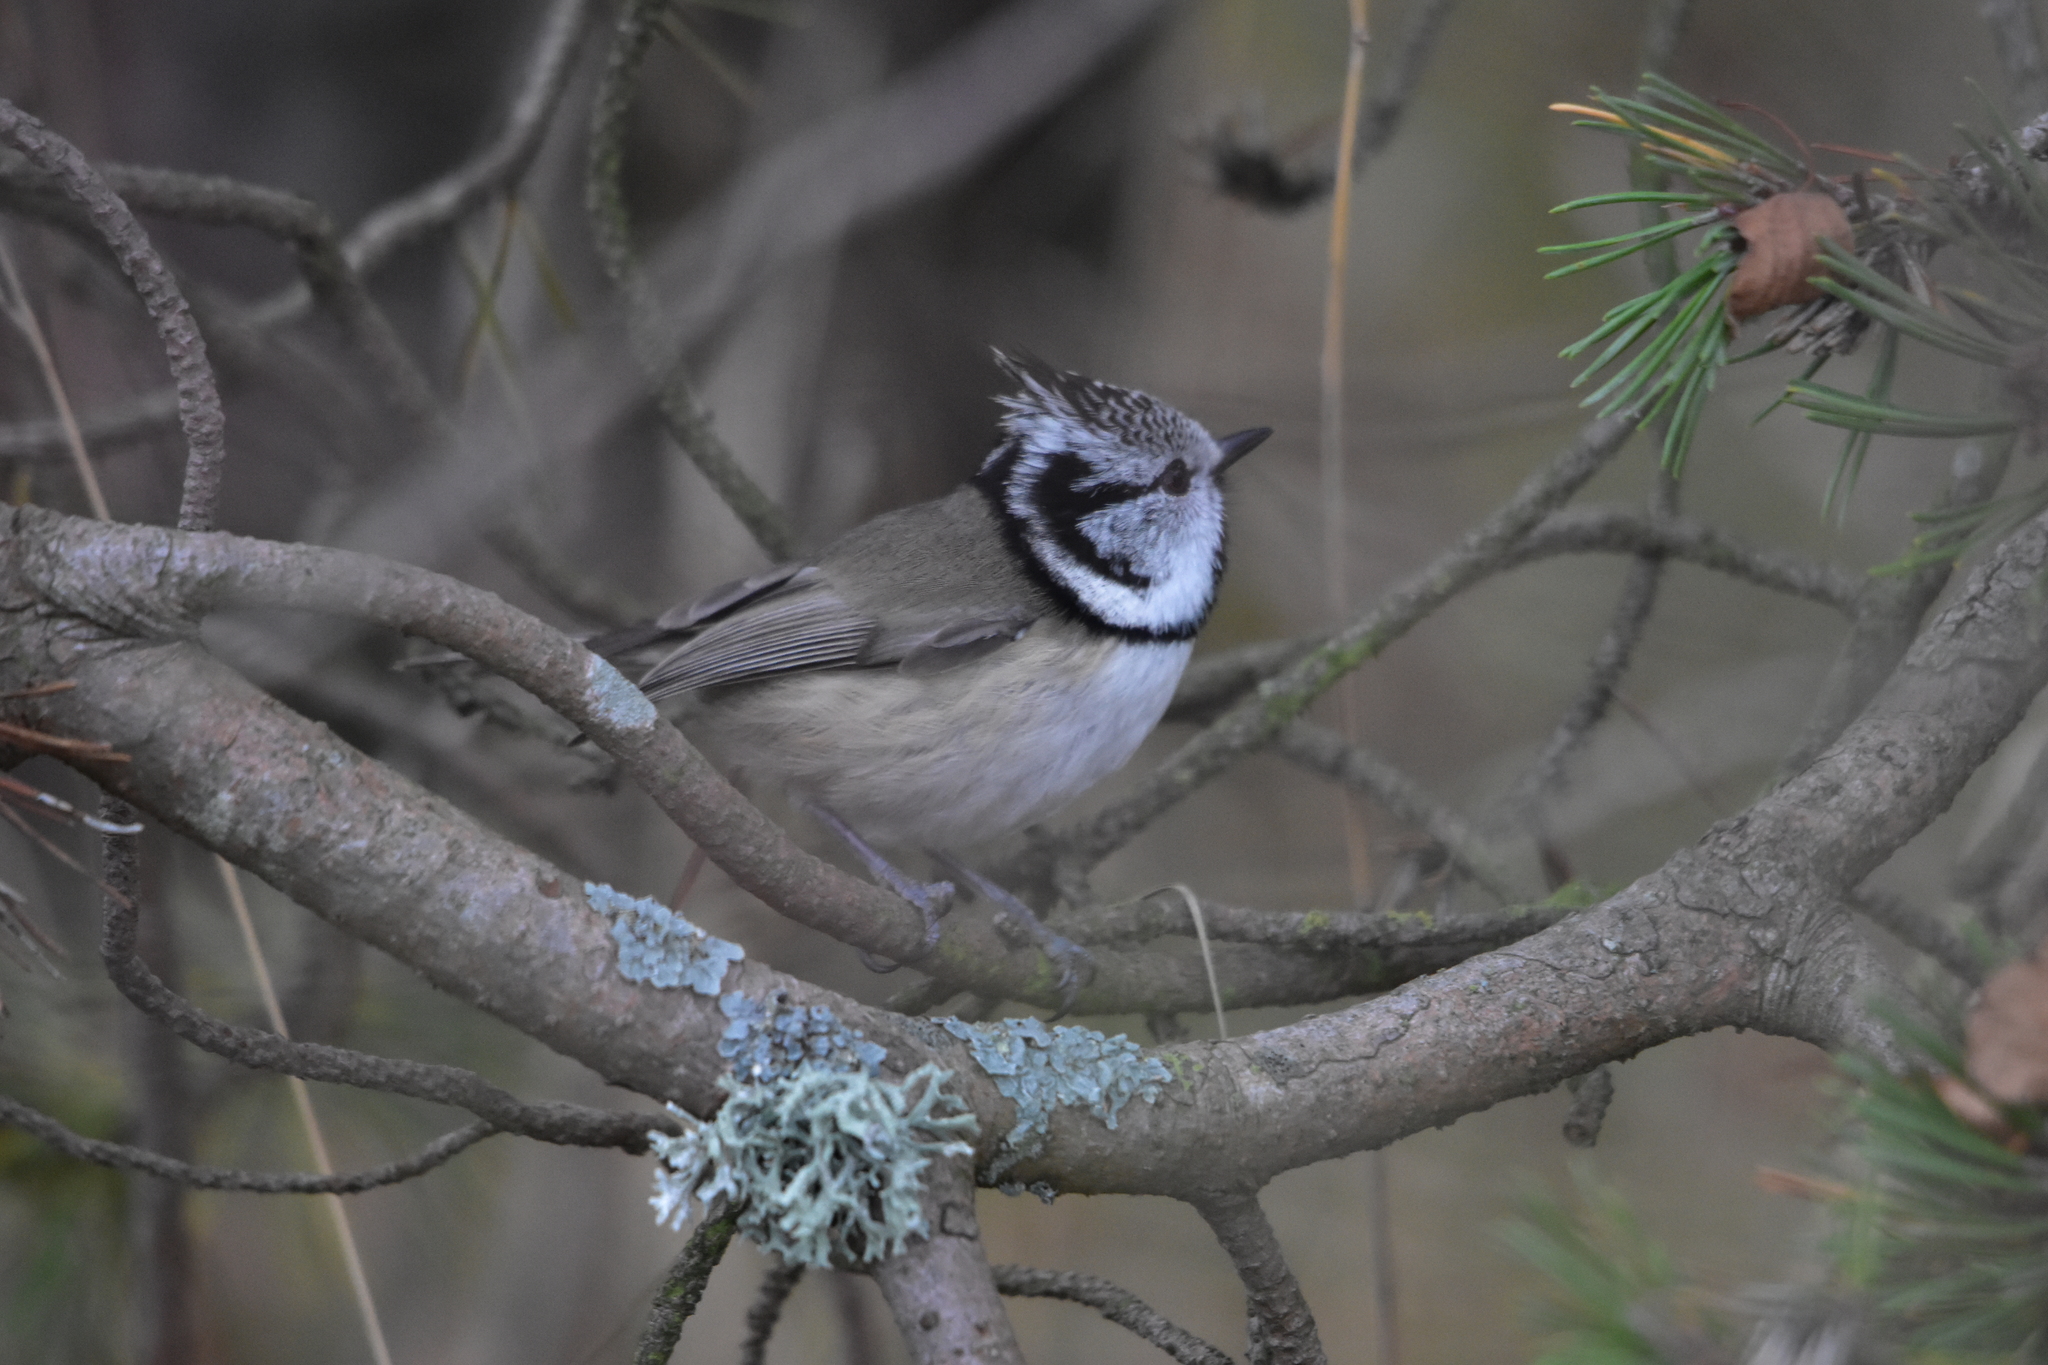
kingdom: Animalia
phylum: Chordata
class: Aves
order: Passeriformes
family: Paridae
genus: Lophophanes
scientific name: Lophophanes cristatus
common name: European crested tit
